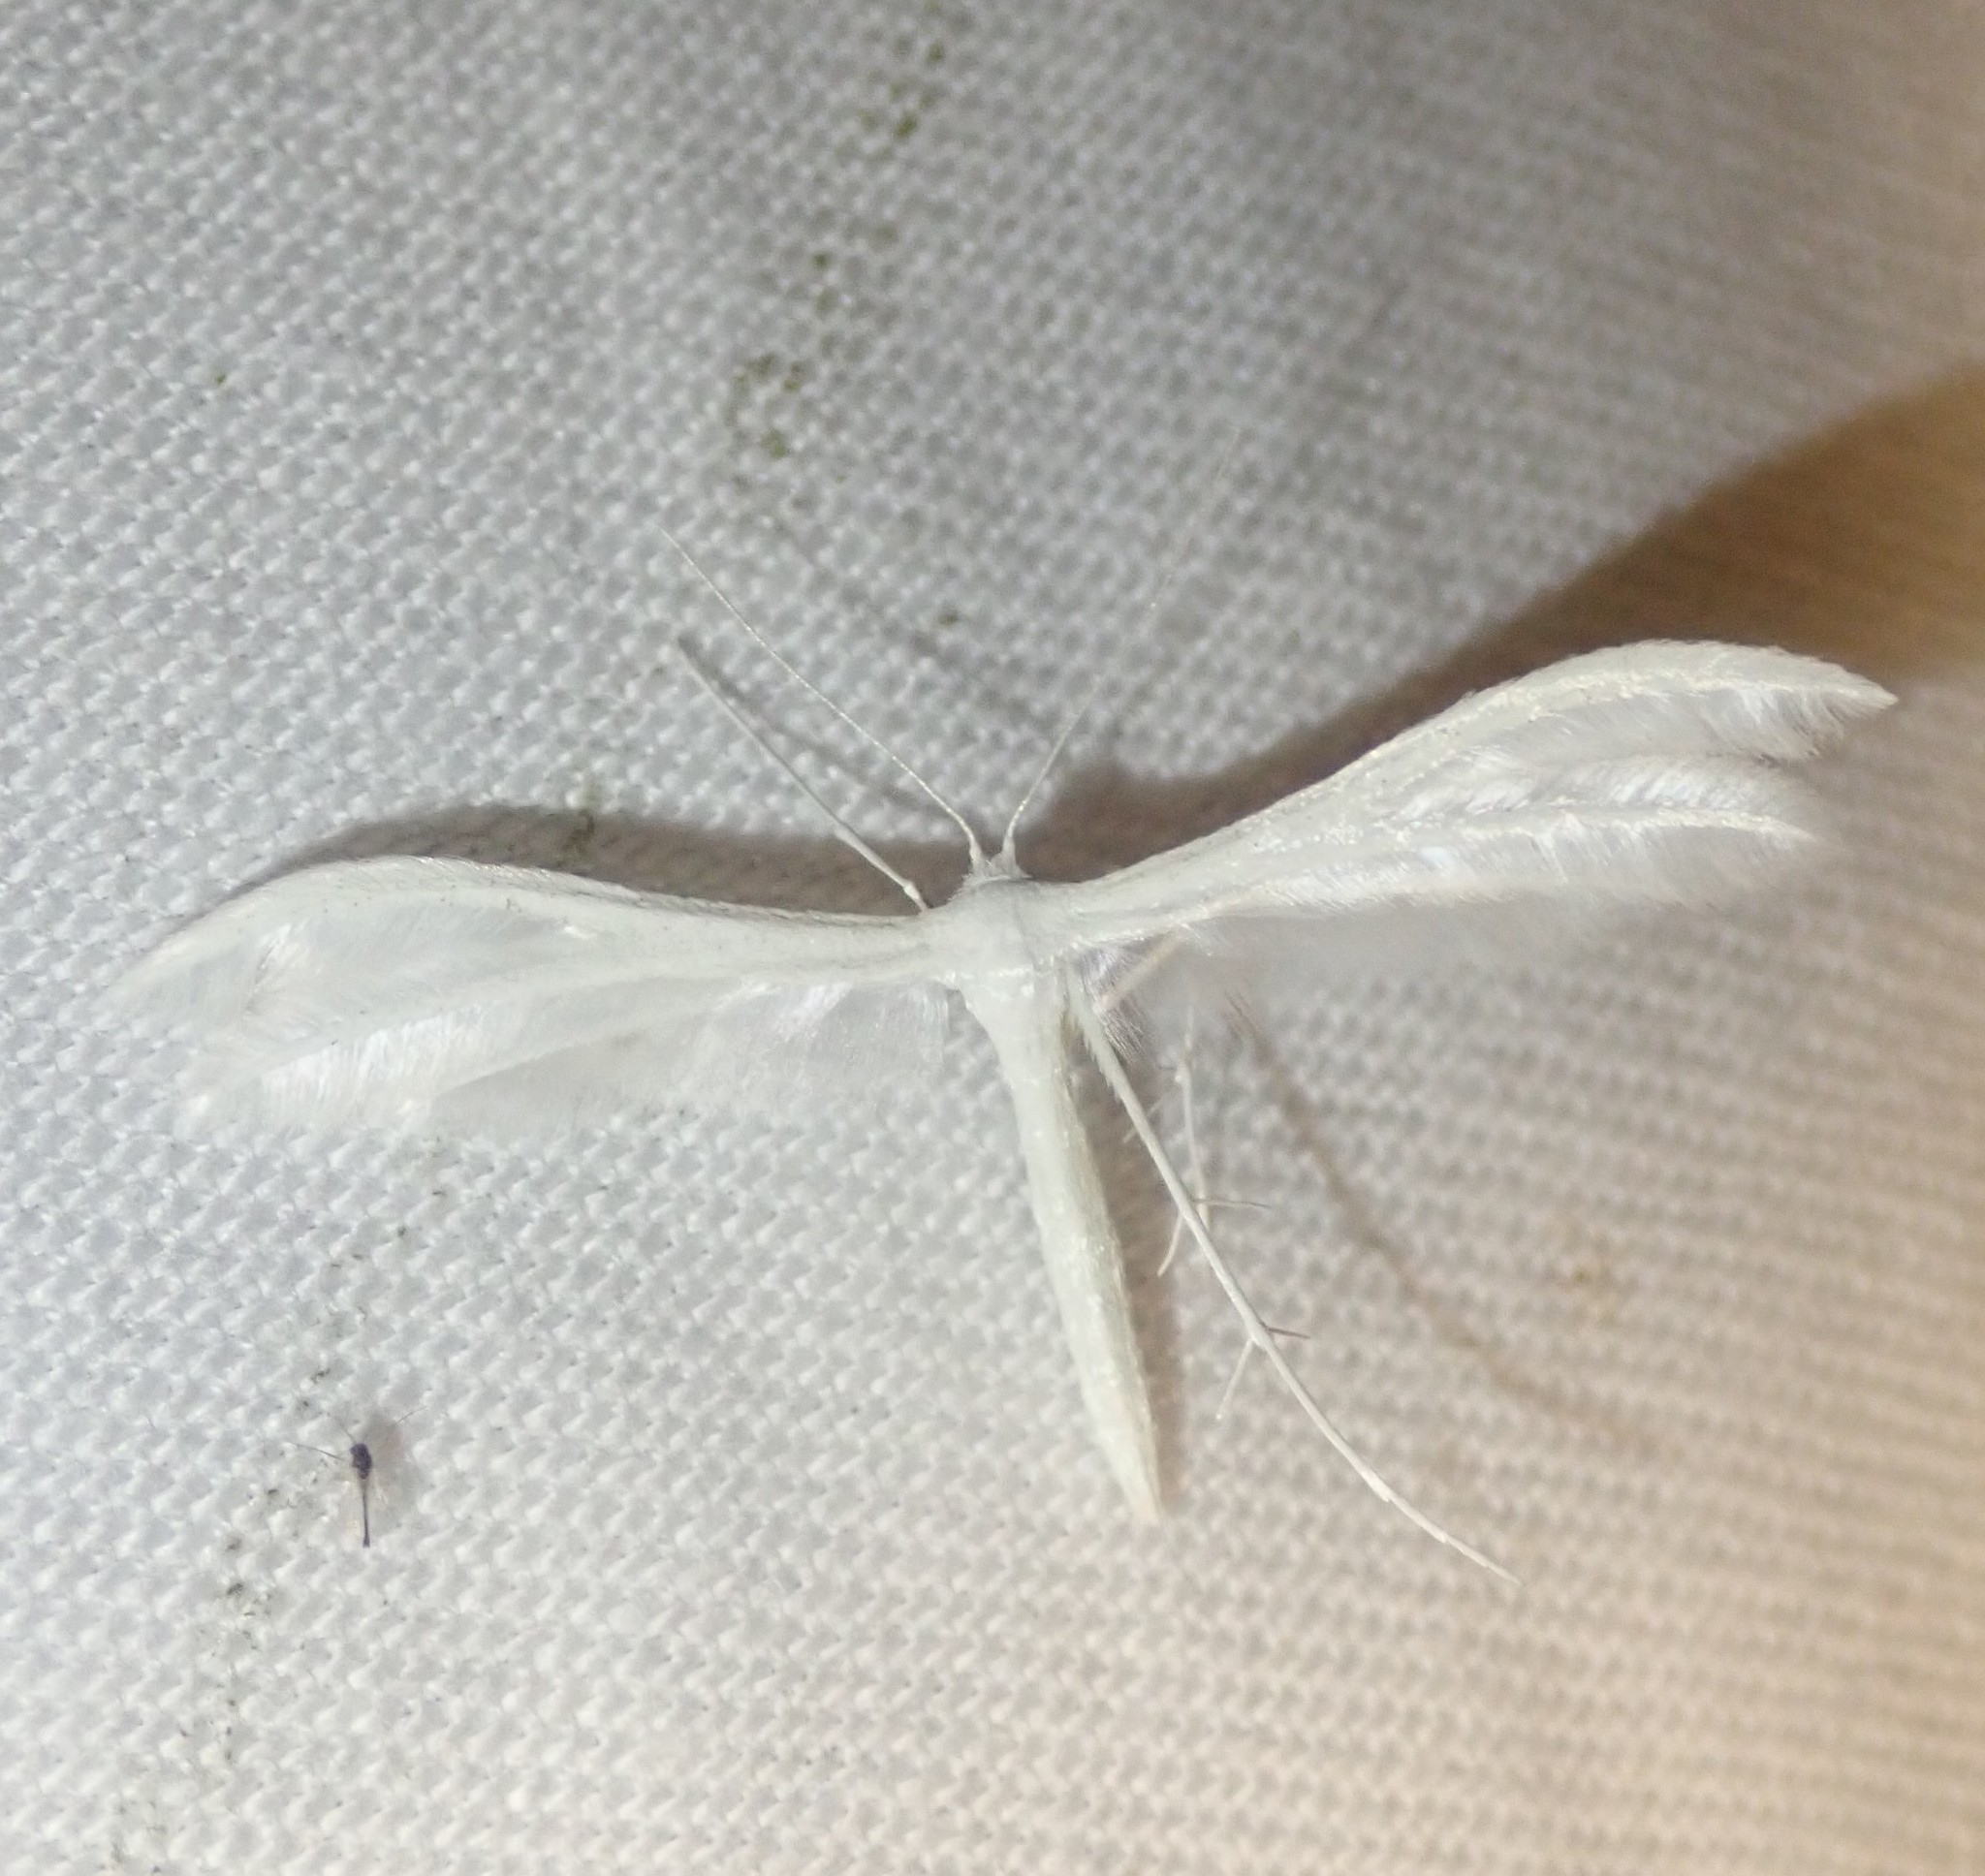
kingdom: Animalia
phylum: Arthropoda
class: Insecta
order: Lepidoptera
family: Pterophoridae
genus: Pterophorus
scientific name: Pterophorus pentadactyla
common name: White plume moth
